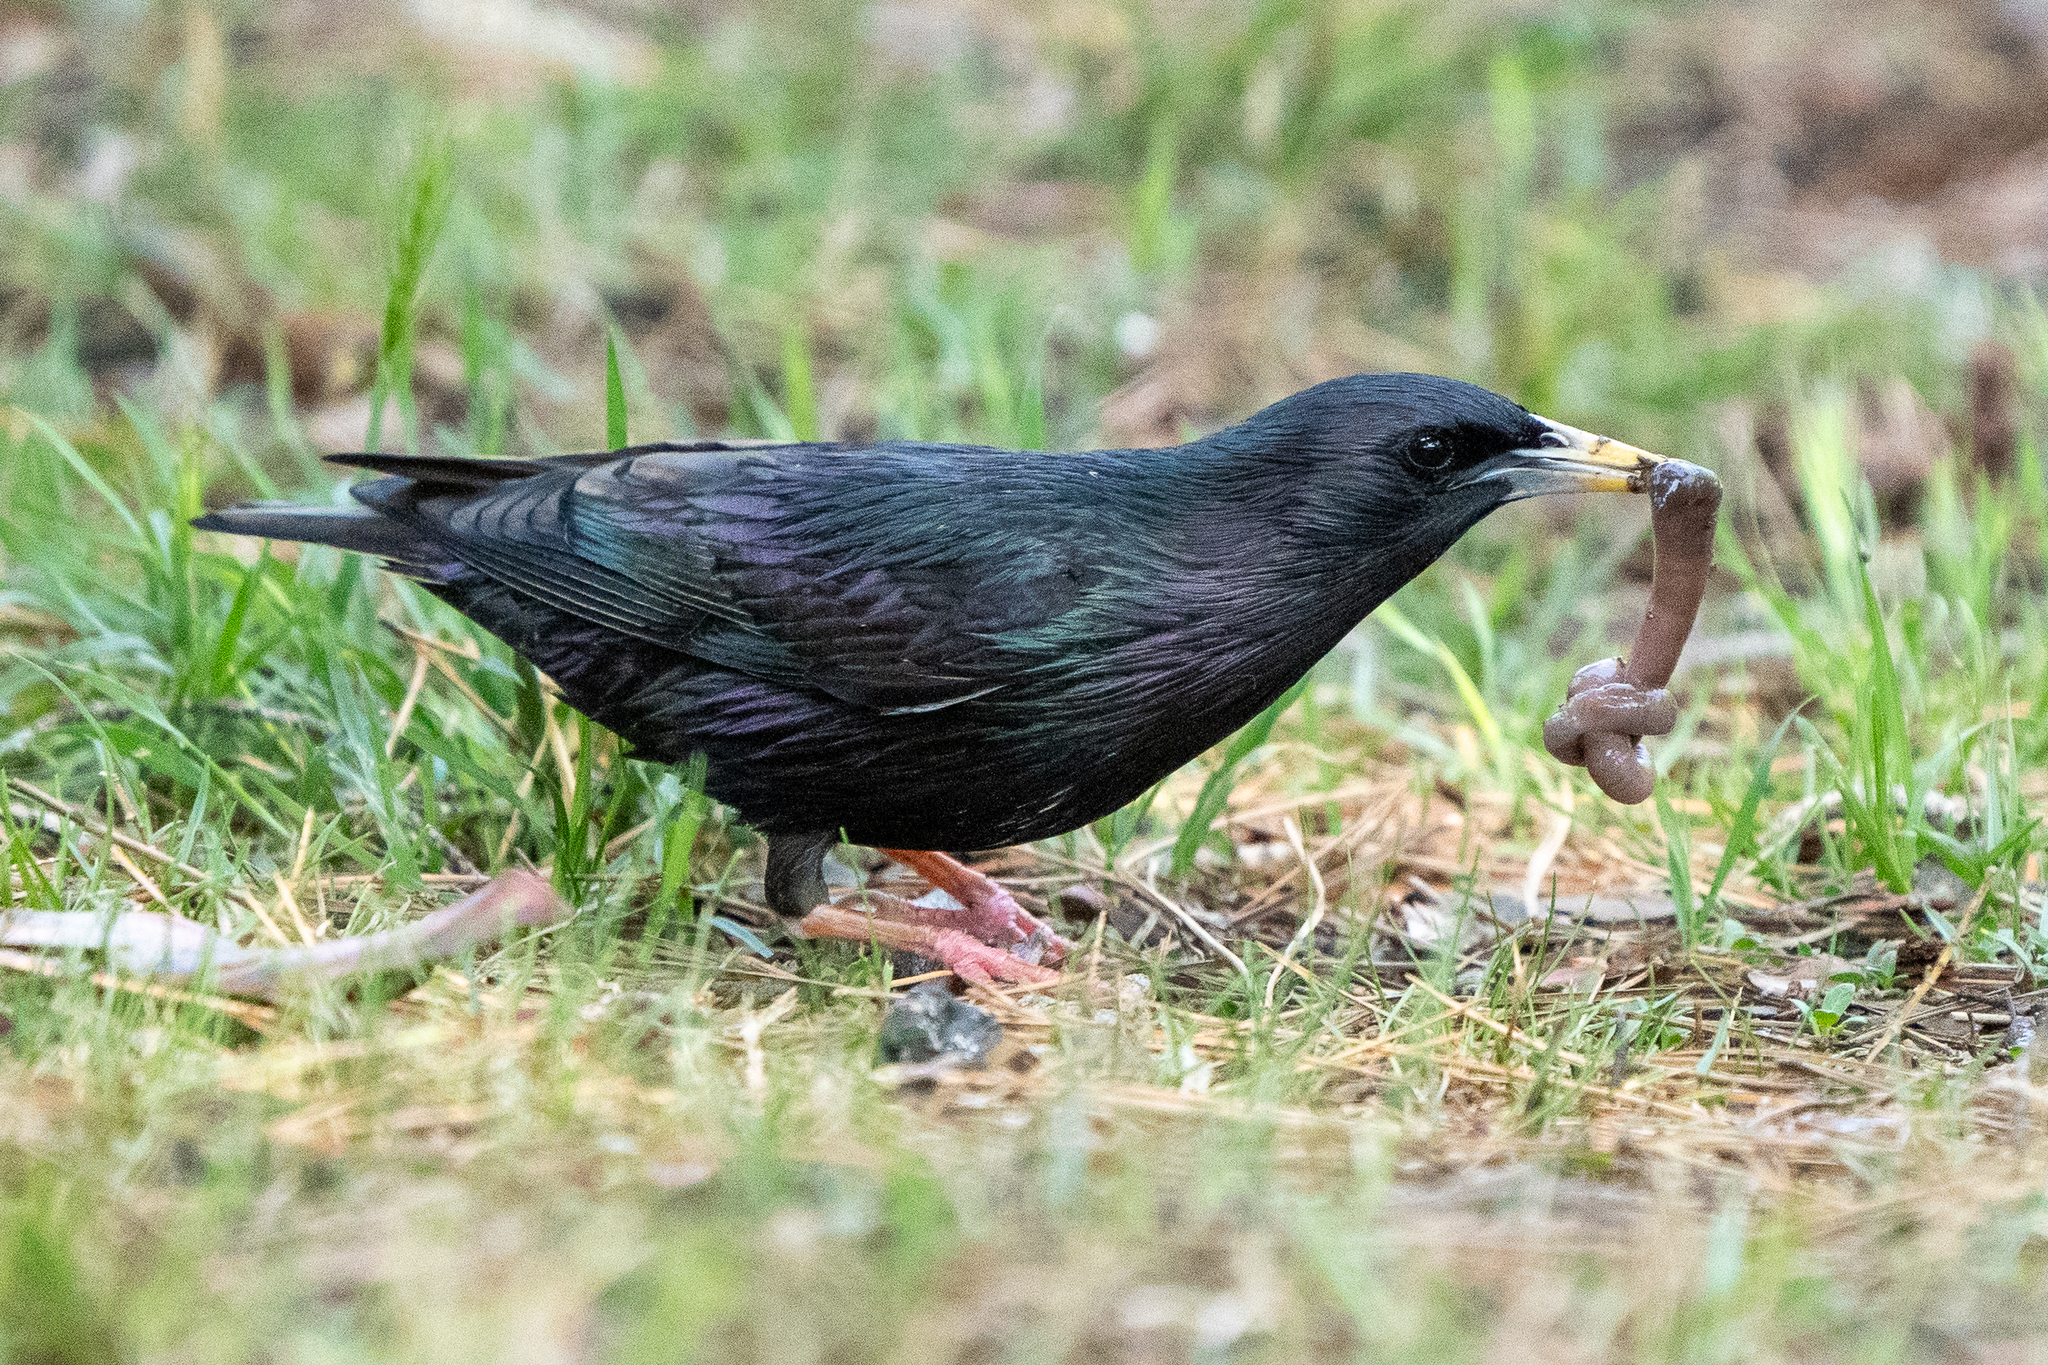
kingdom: Animalia
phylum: Chordata
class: Aves
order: Passeriformes
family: Sturnidae
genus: Sturnus
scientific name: Sturnus unicolor
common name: Spotless starling
